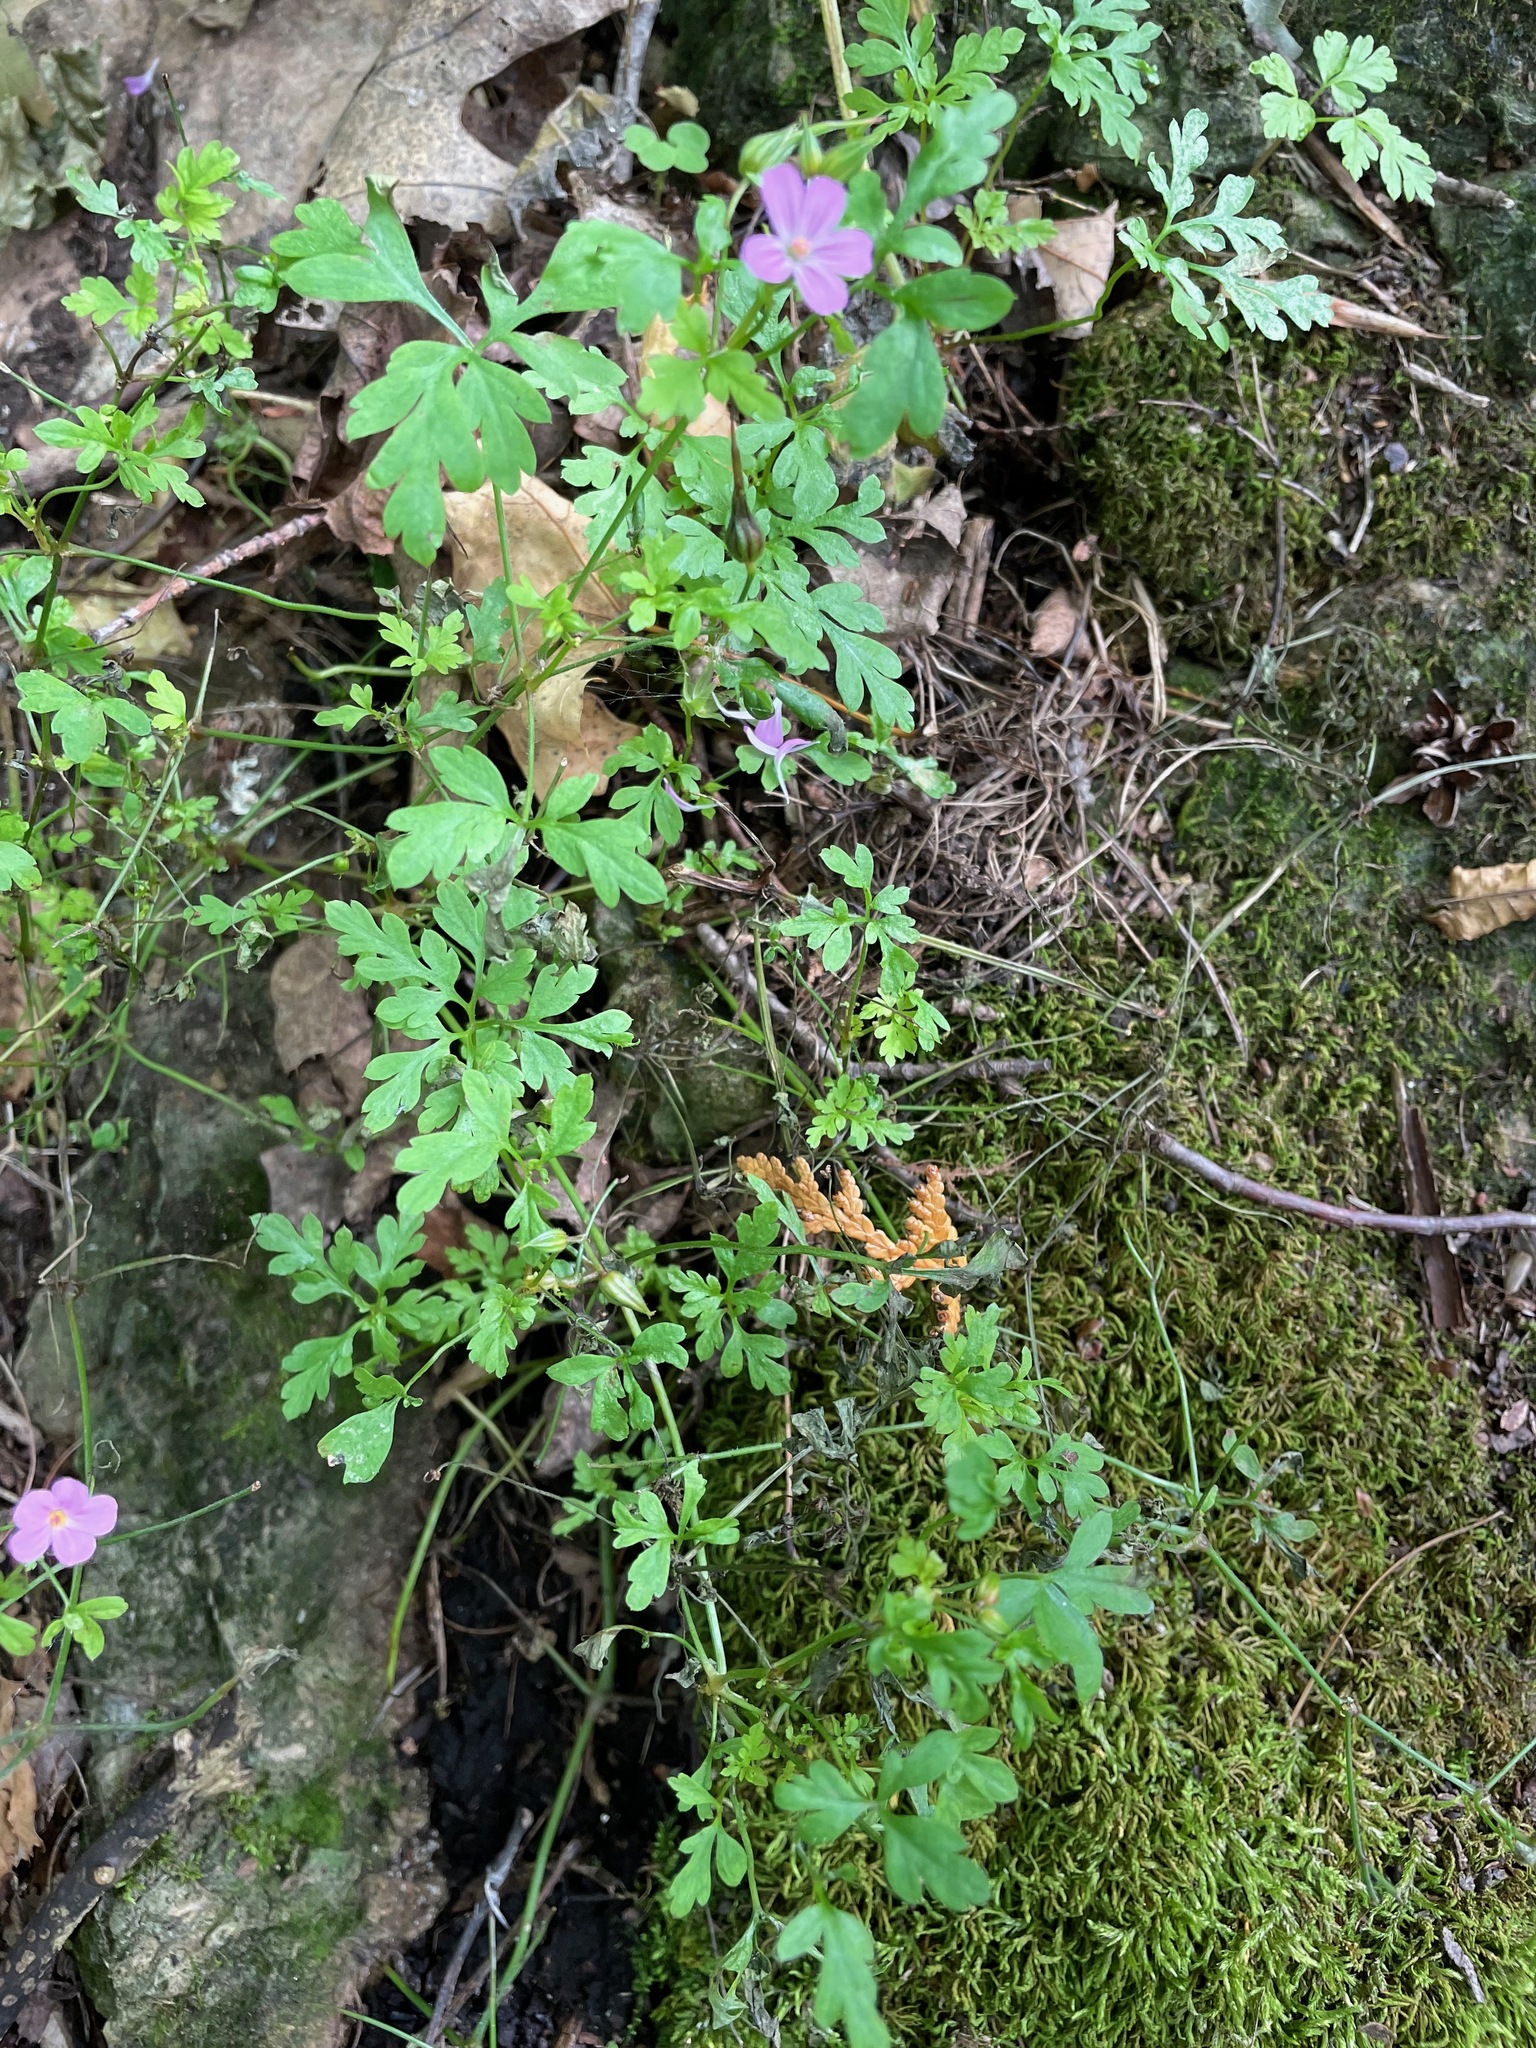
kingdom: Plantae
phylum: Tracheophyta
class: Magnoliopsida
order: Geraniales
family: Geraniaceae
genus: Geranium
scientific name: Geranium robertianum
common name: Herb-robert
